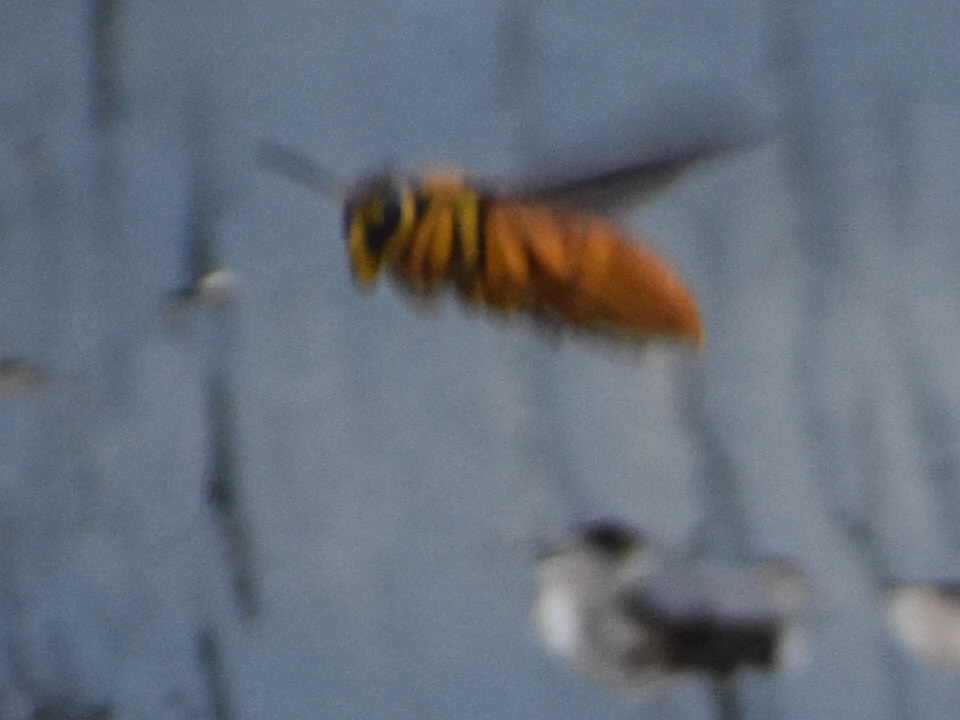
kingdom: Animalia
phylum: Arthropoda
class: Insecta
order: Hymenoptera
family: Vespidae
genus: Vespula
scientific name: Vespula squamosa
